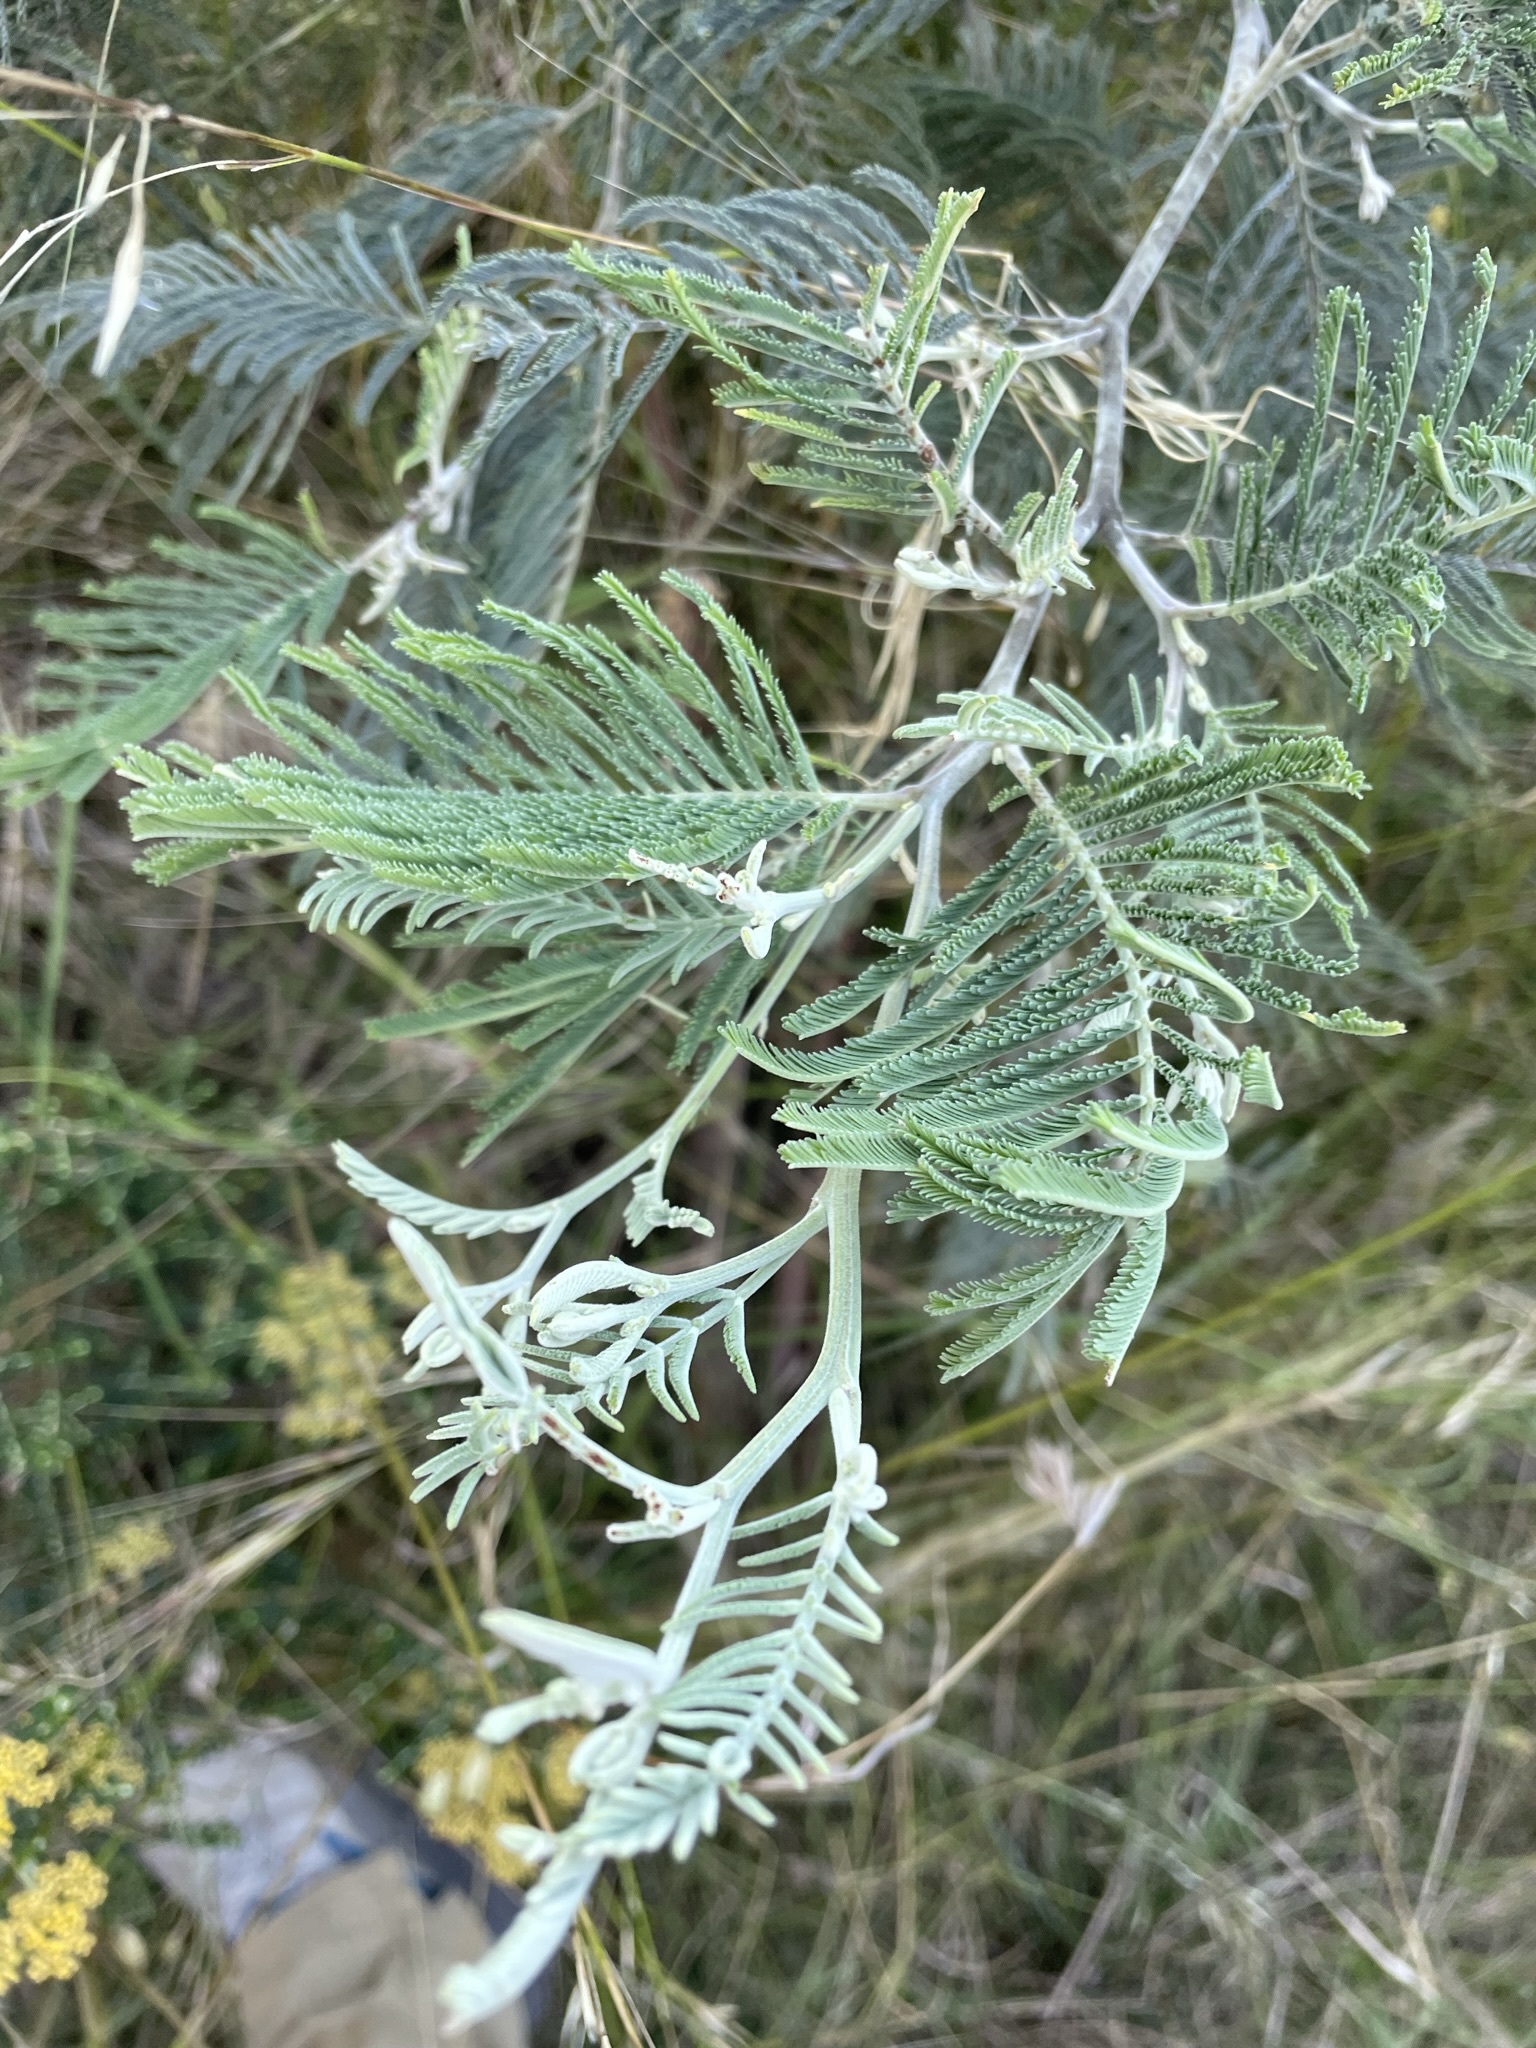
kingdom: Plantae
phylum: Tracheophyta
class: Magnoliopsida
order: Fabales
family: Fabaceae
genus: Acacia
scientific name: Acacia dealbata
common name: Silver wattle
